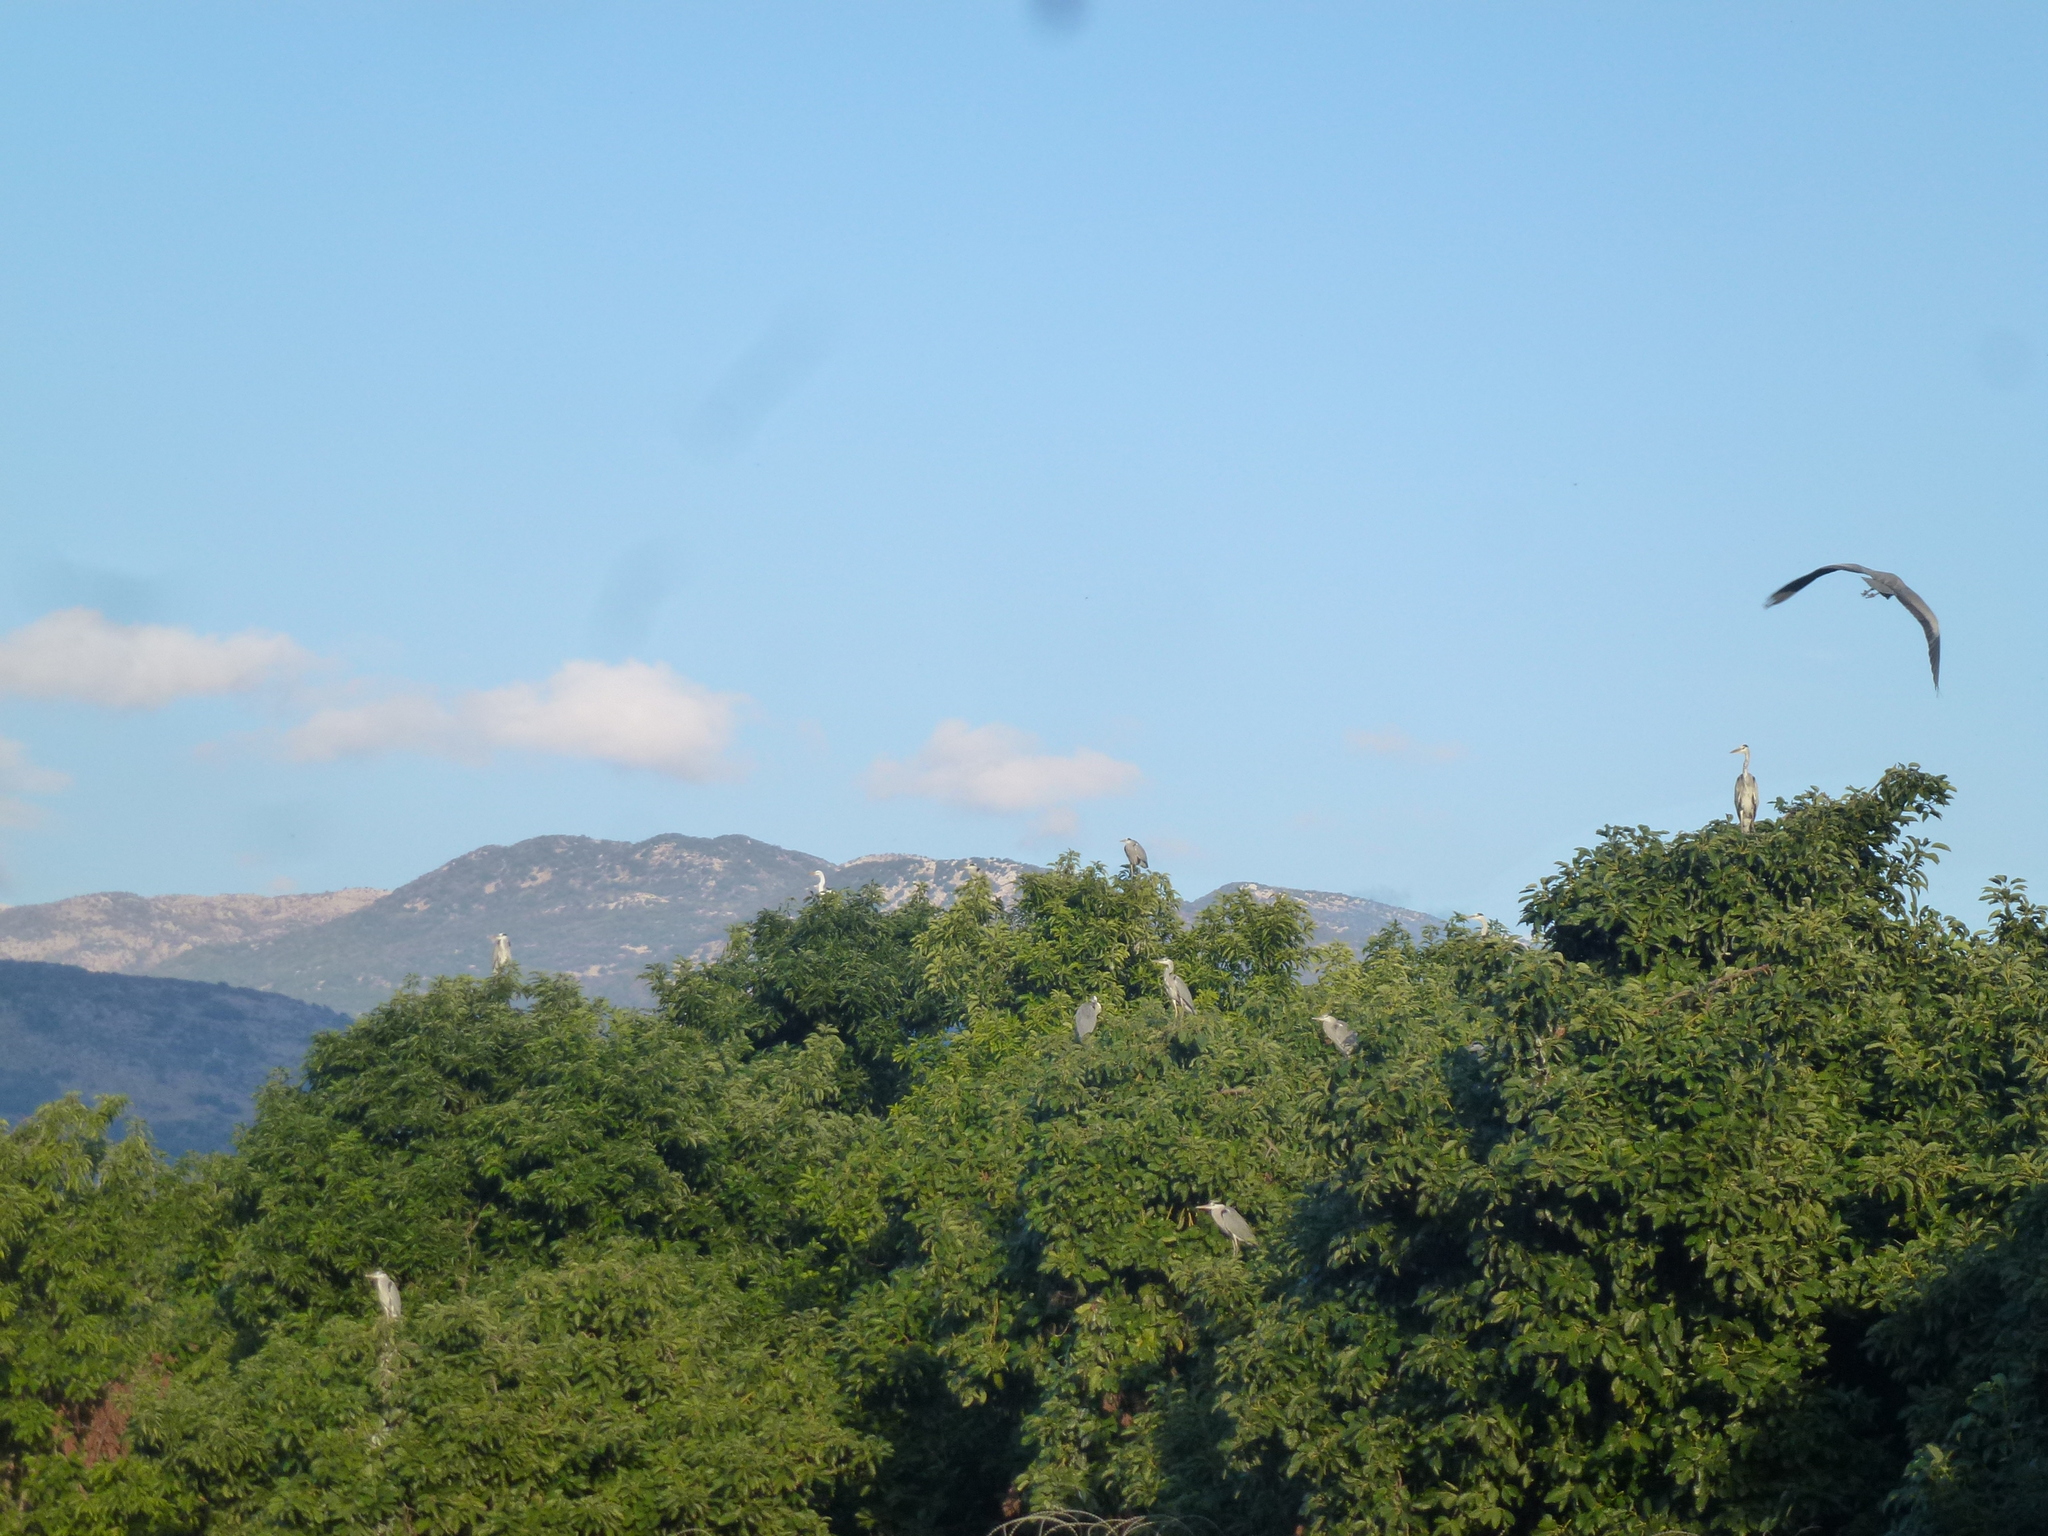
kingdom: Animalia
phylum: Chordata
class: Aves
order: Pelecaniformes
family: Ardeidae
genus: Ardea
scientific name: Ardea cinerea
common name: Grey heron
